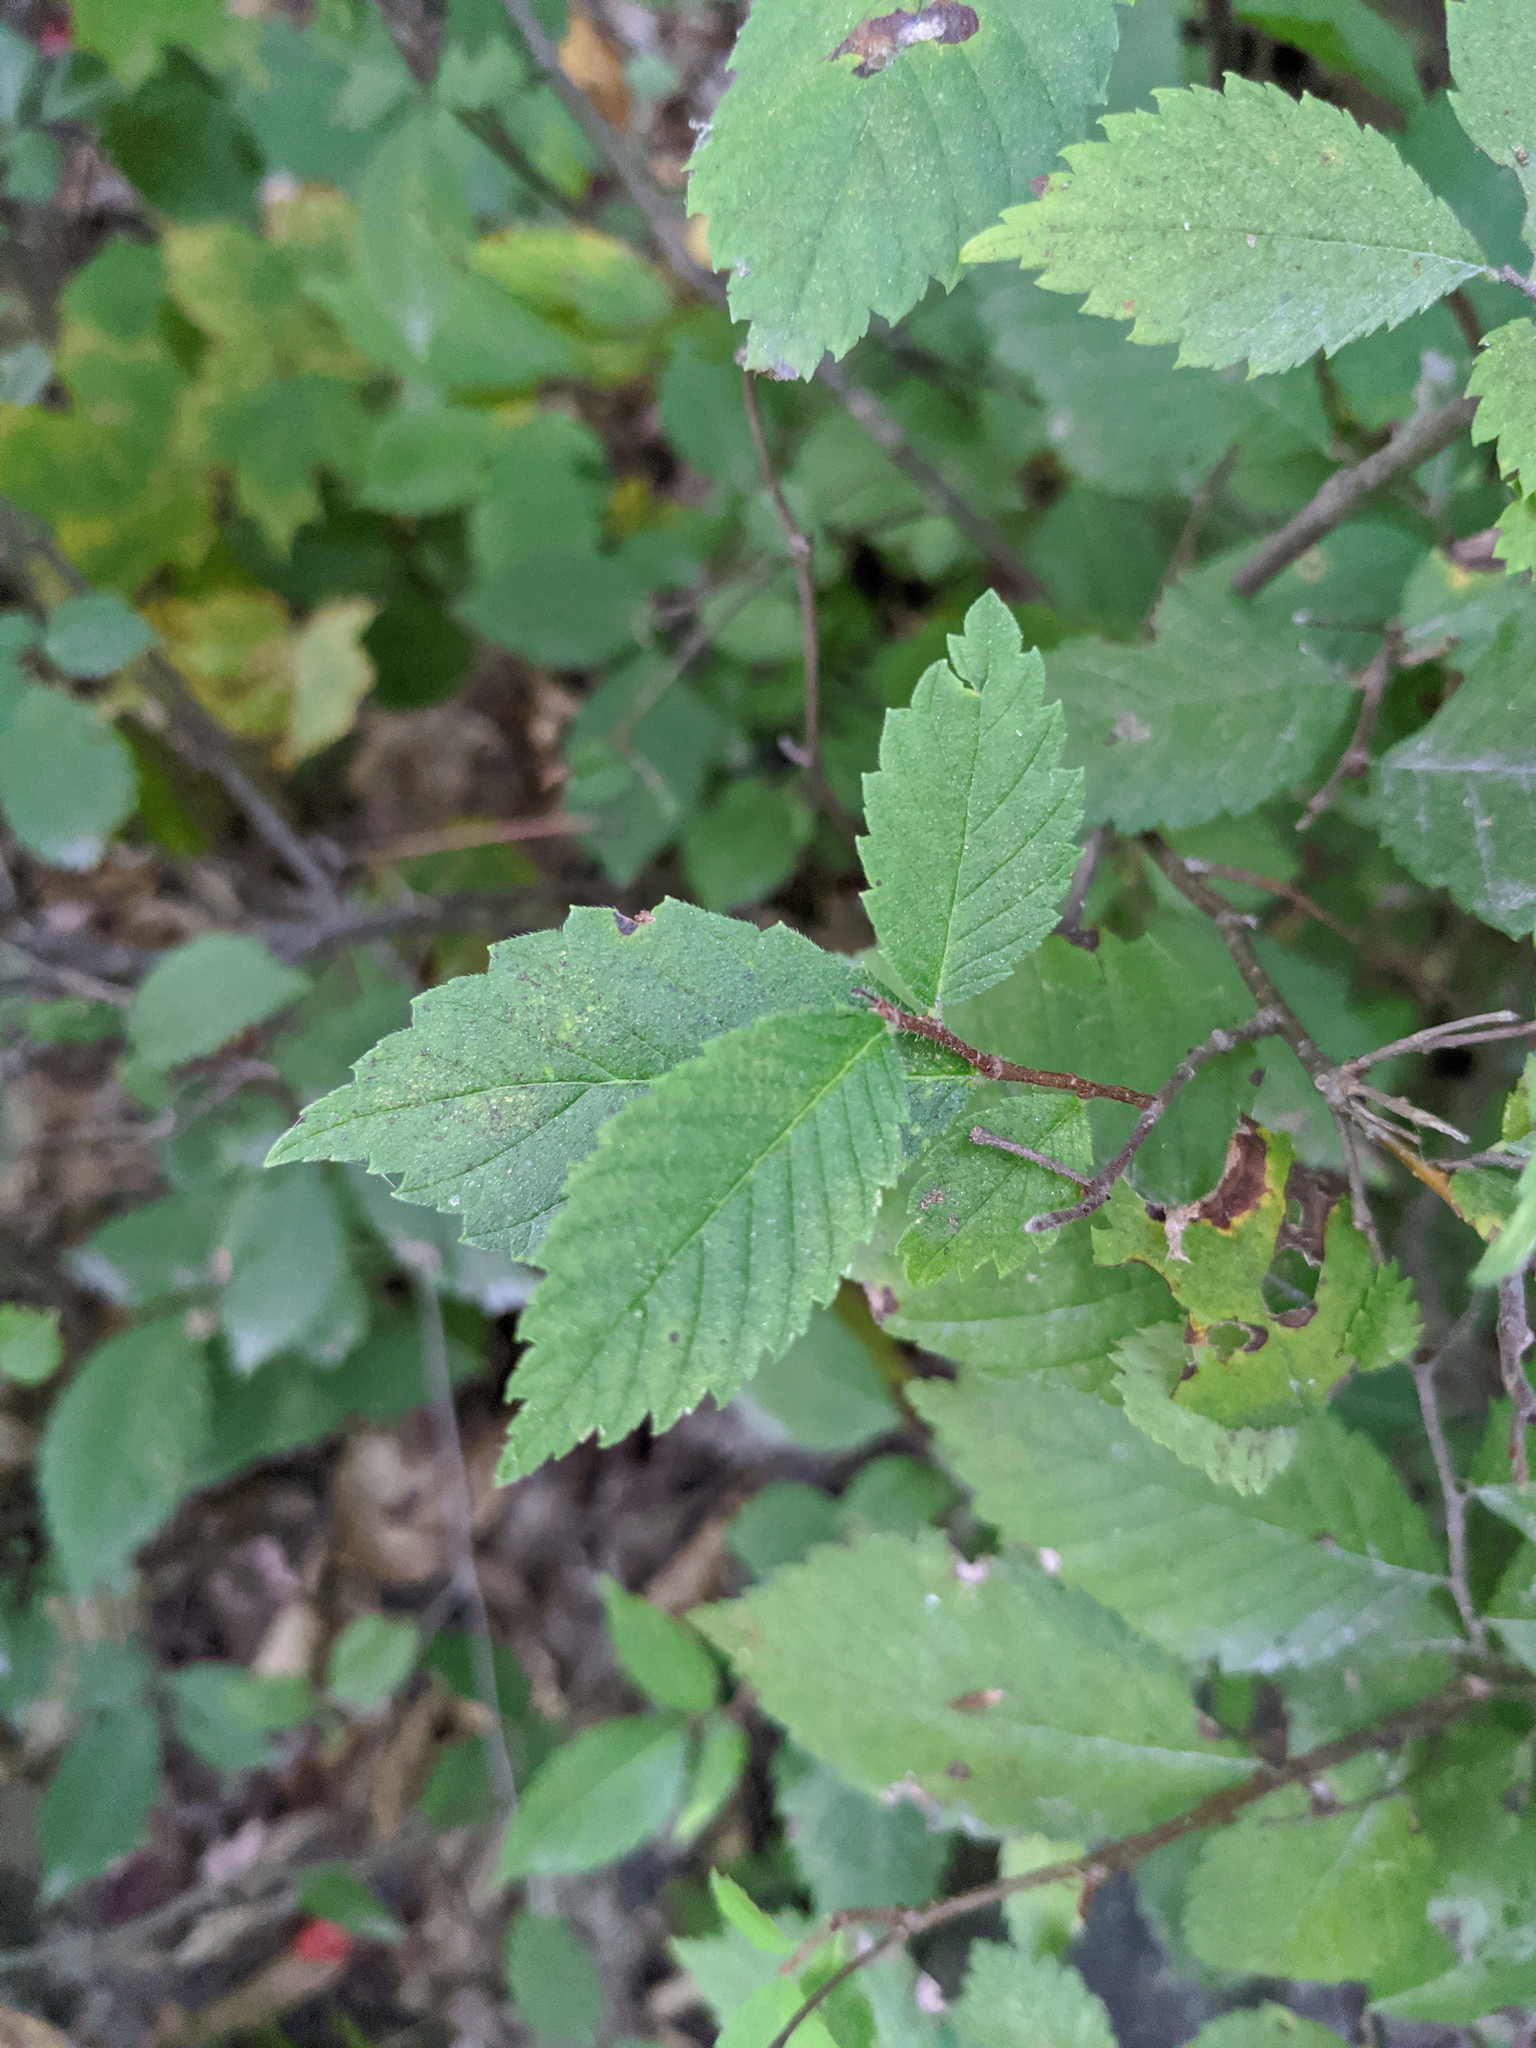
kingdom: Plantae
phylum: Tracheophyta
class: Magnoliopsida
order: Rosales
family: Ulmaceae
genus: Ulmus
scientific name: Ulmus americana
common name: American elm
